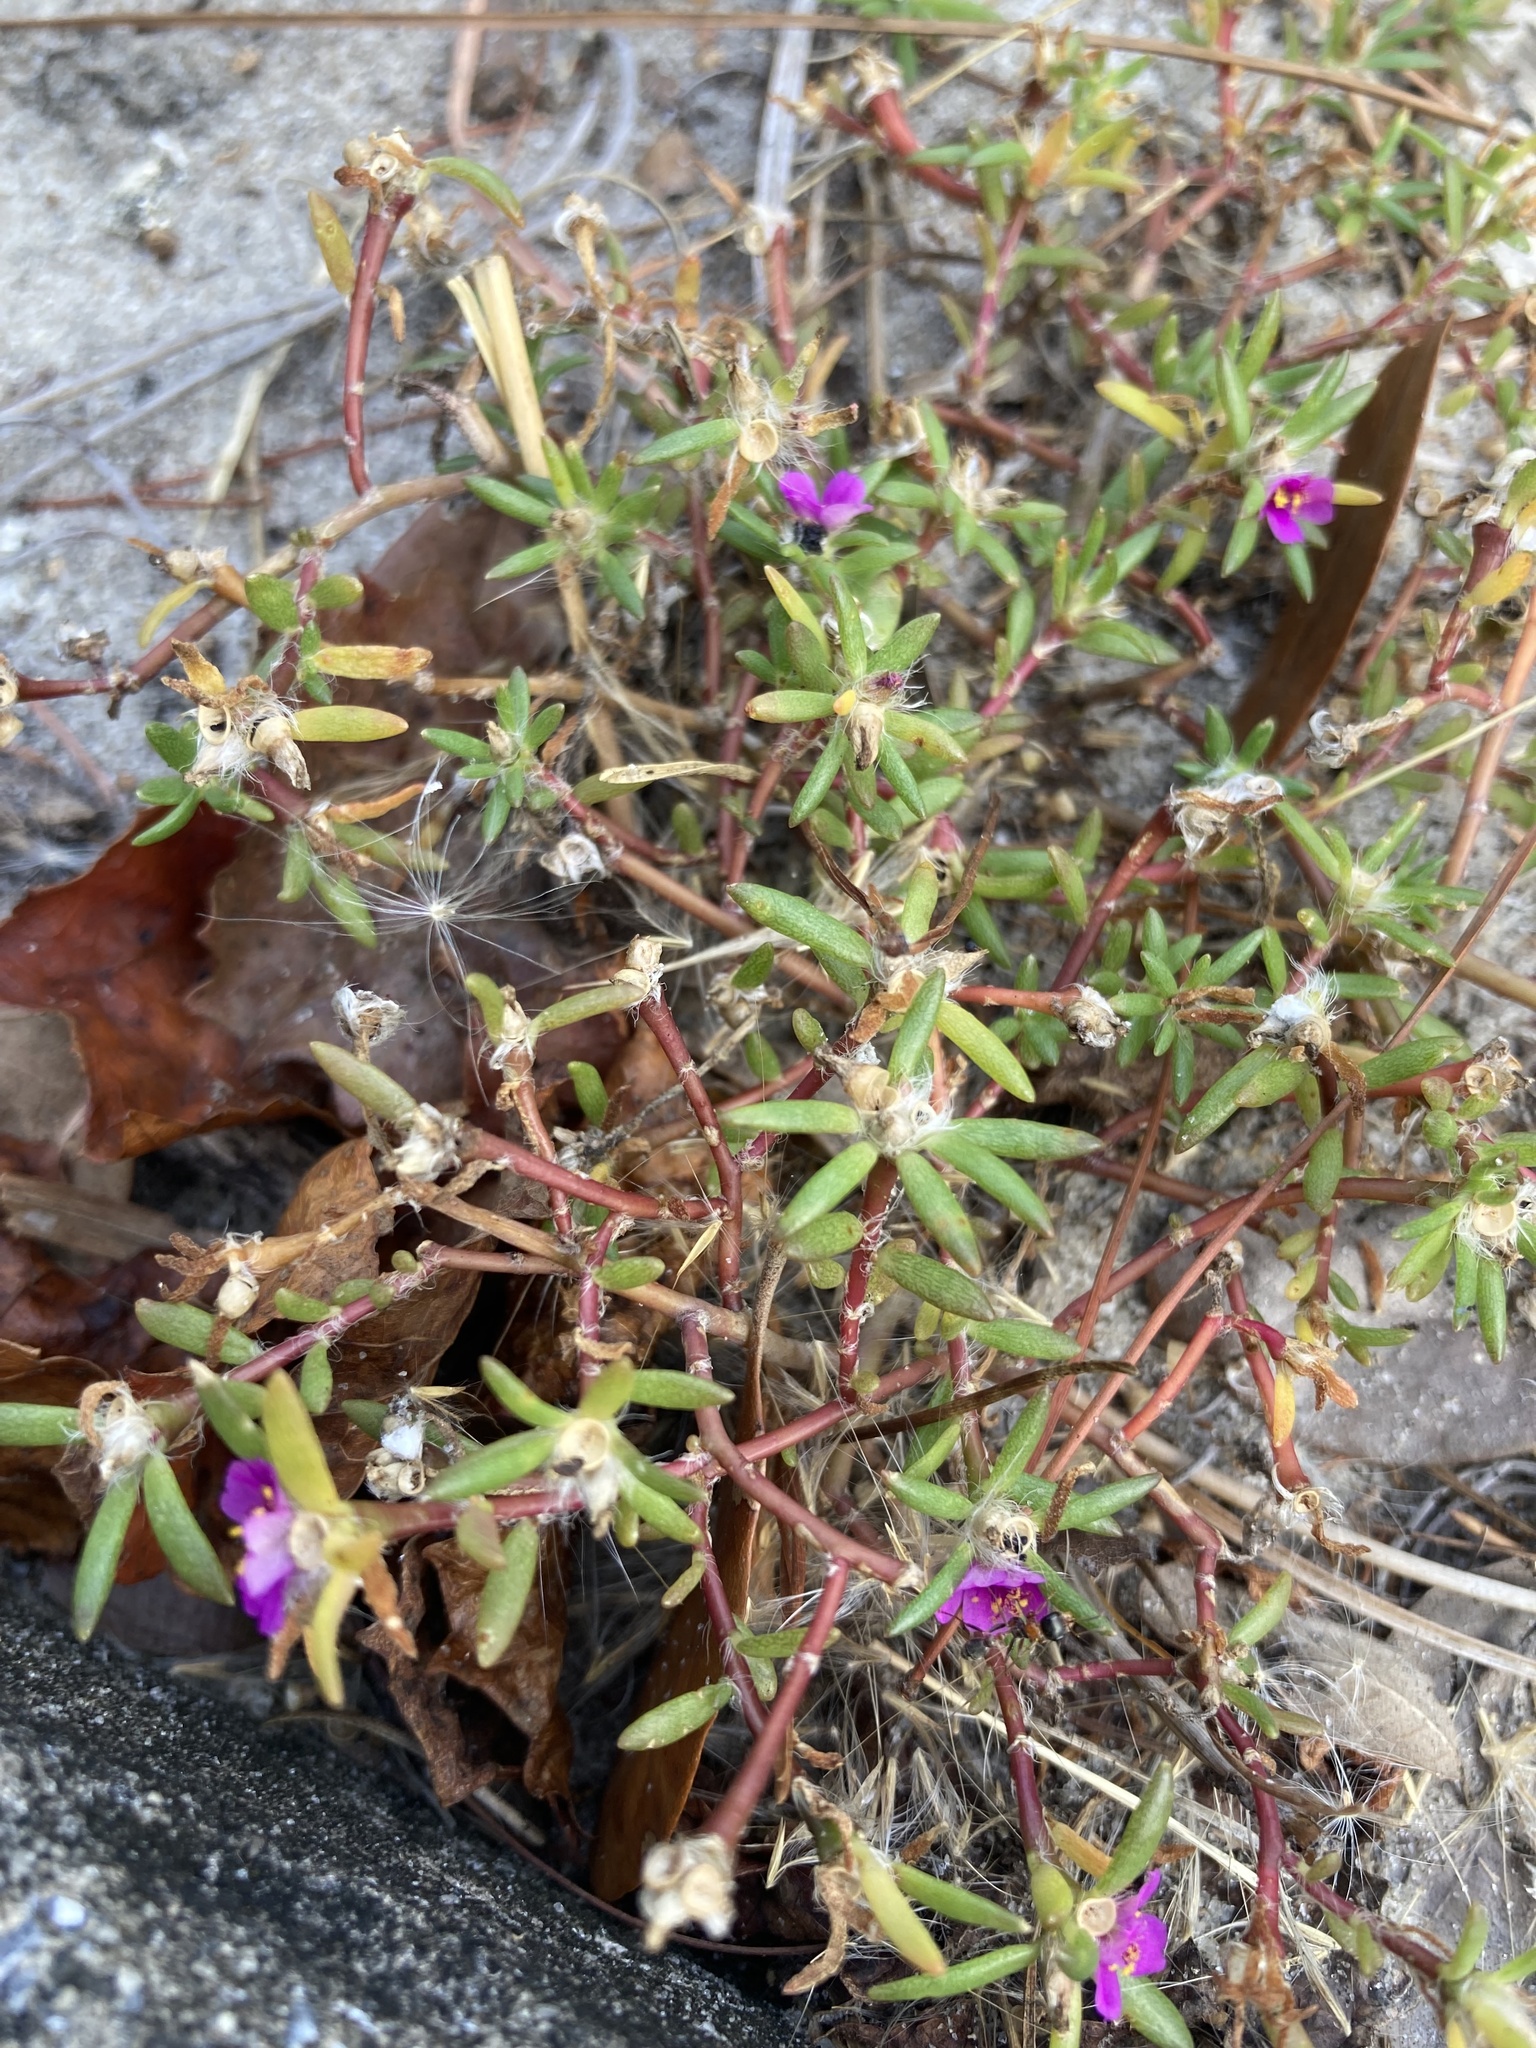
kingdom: Plantae
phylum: Tracheophyta
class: Magnoliopsida
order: Caryophyllales
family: Portulacaceae
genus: Portulaca
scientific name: Portulaca pilosa
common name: Kiss me quick
